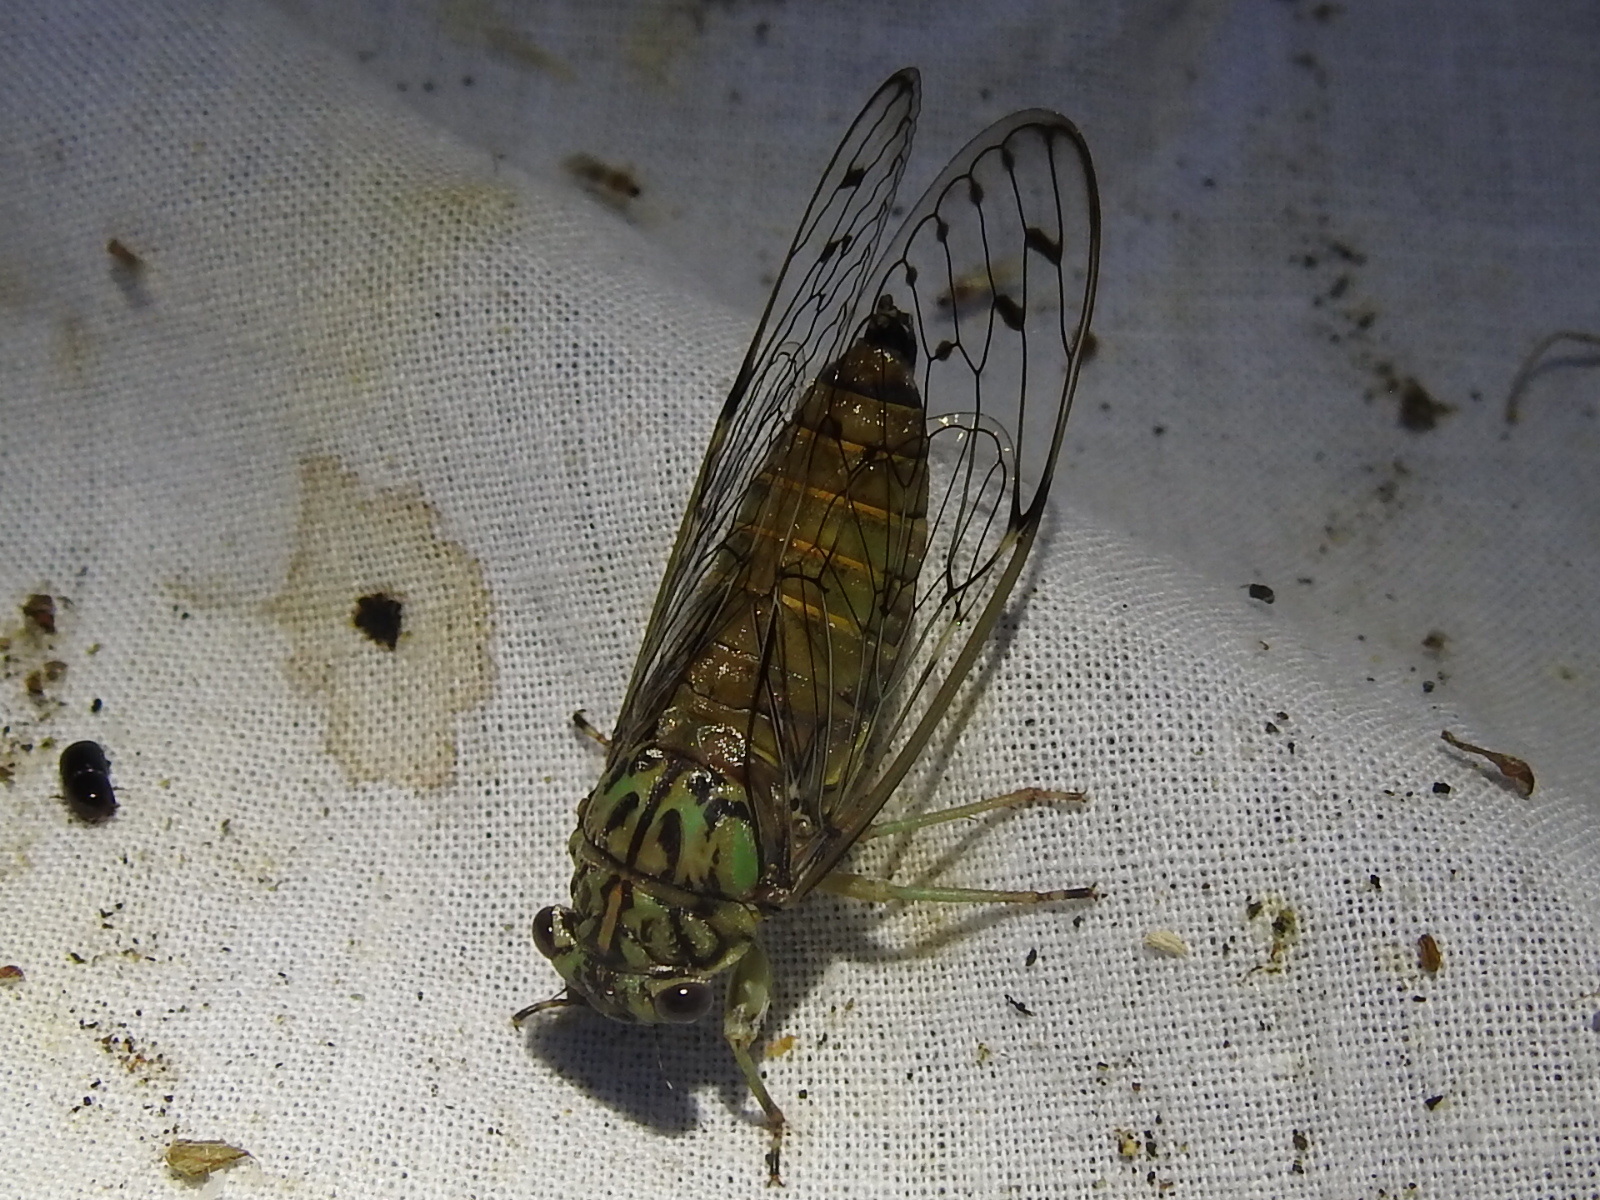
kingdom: Animalia
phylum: Arthropoda
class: Insecta
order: Hemiptera
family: Cicadidae
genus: Neocicada
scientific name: Neocicada hieroglyphica
